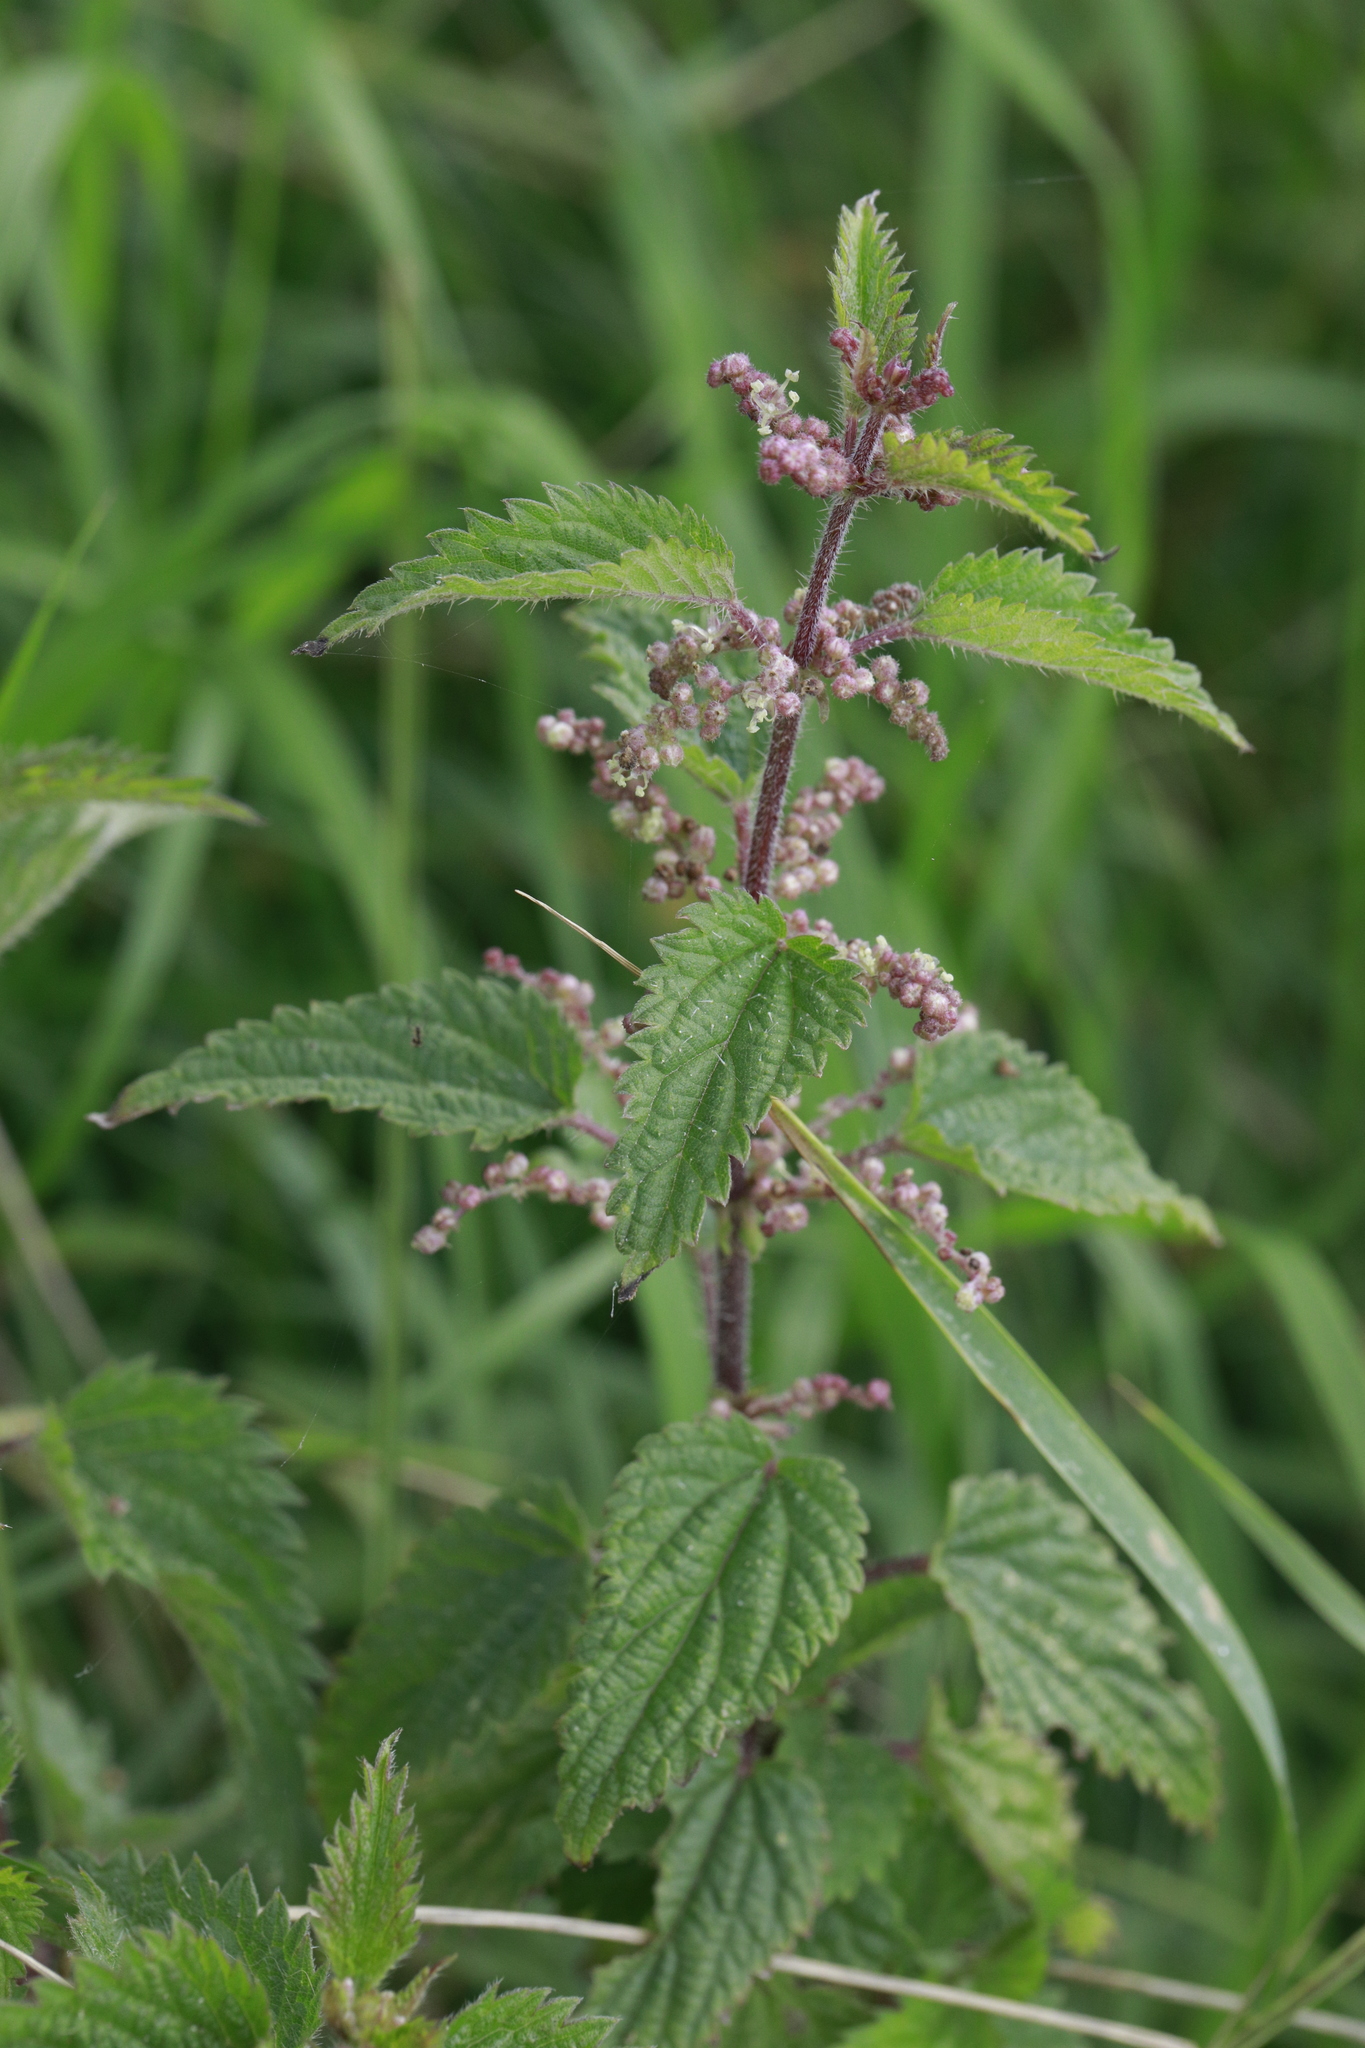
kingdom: Plantae
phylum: Tracheophyta
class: Magnoliopsida
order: Rosales
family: Urticaceae
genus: Urtica
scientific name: Urtica dioica
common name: Common nettle
